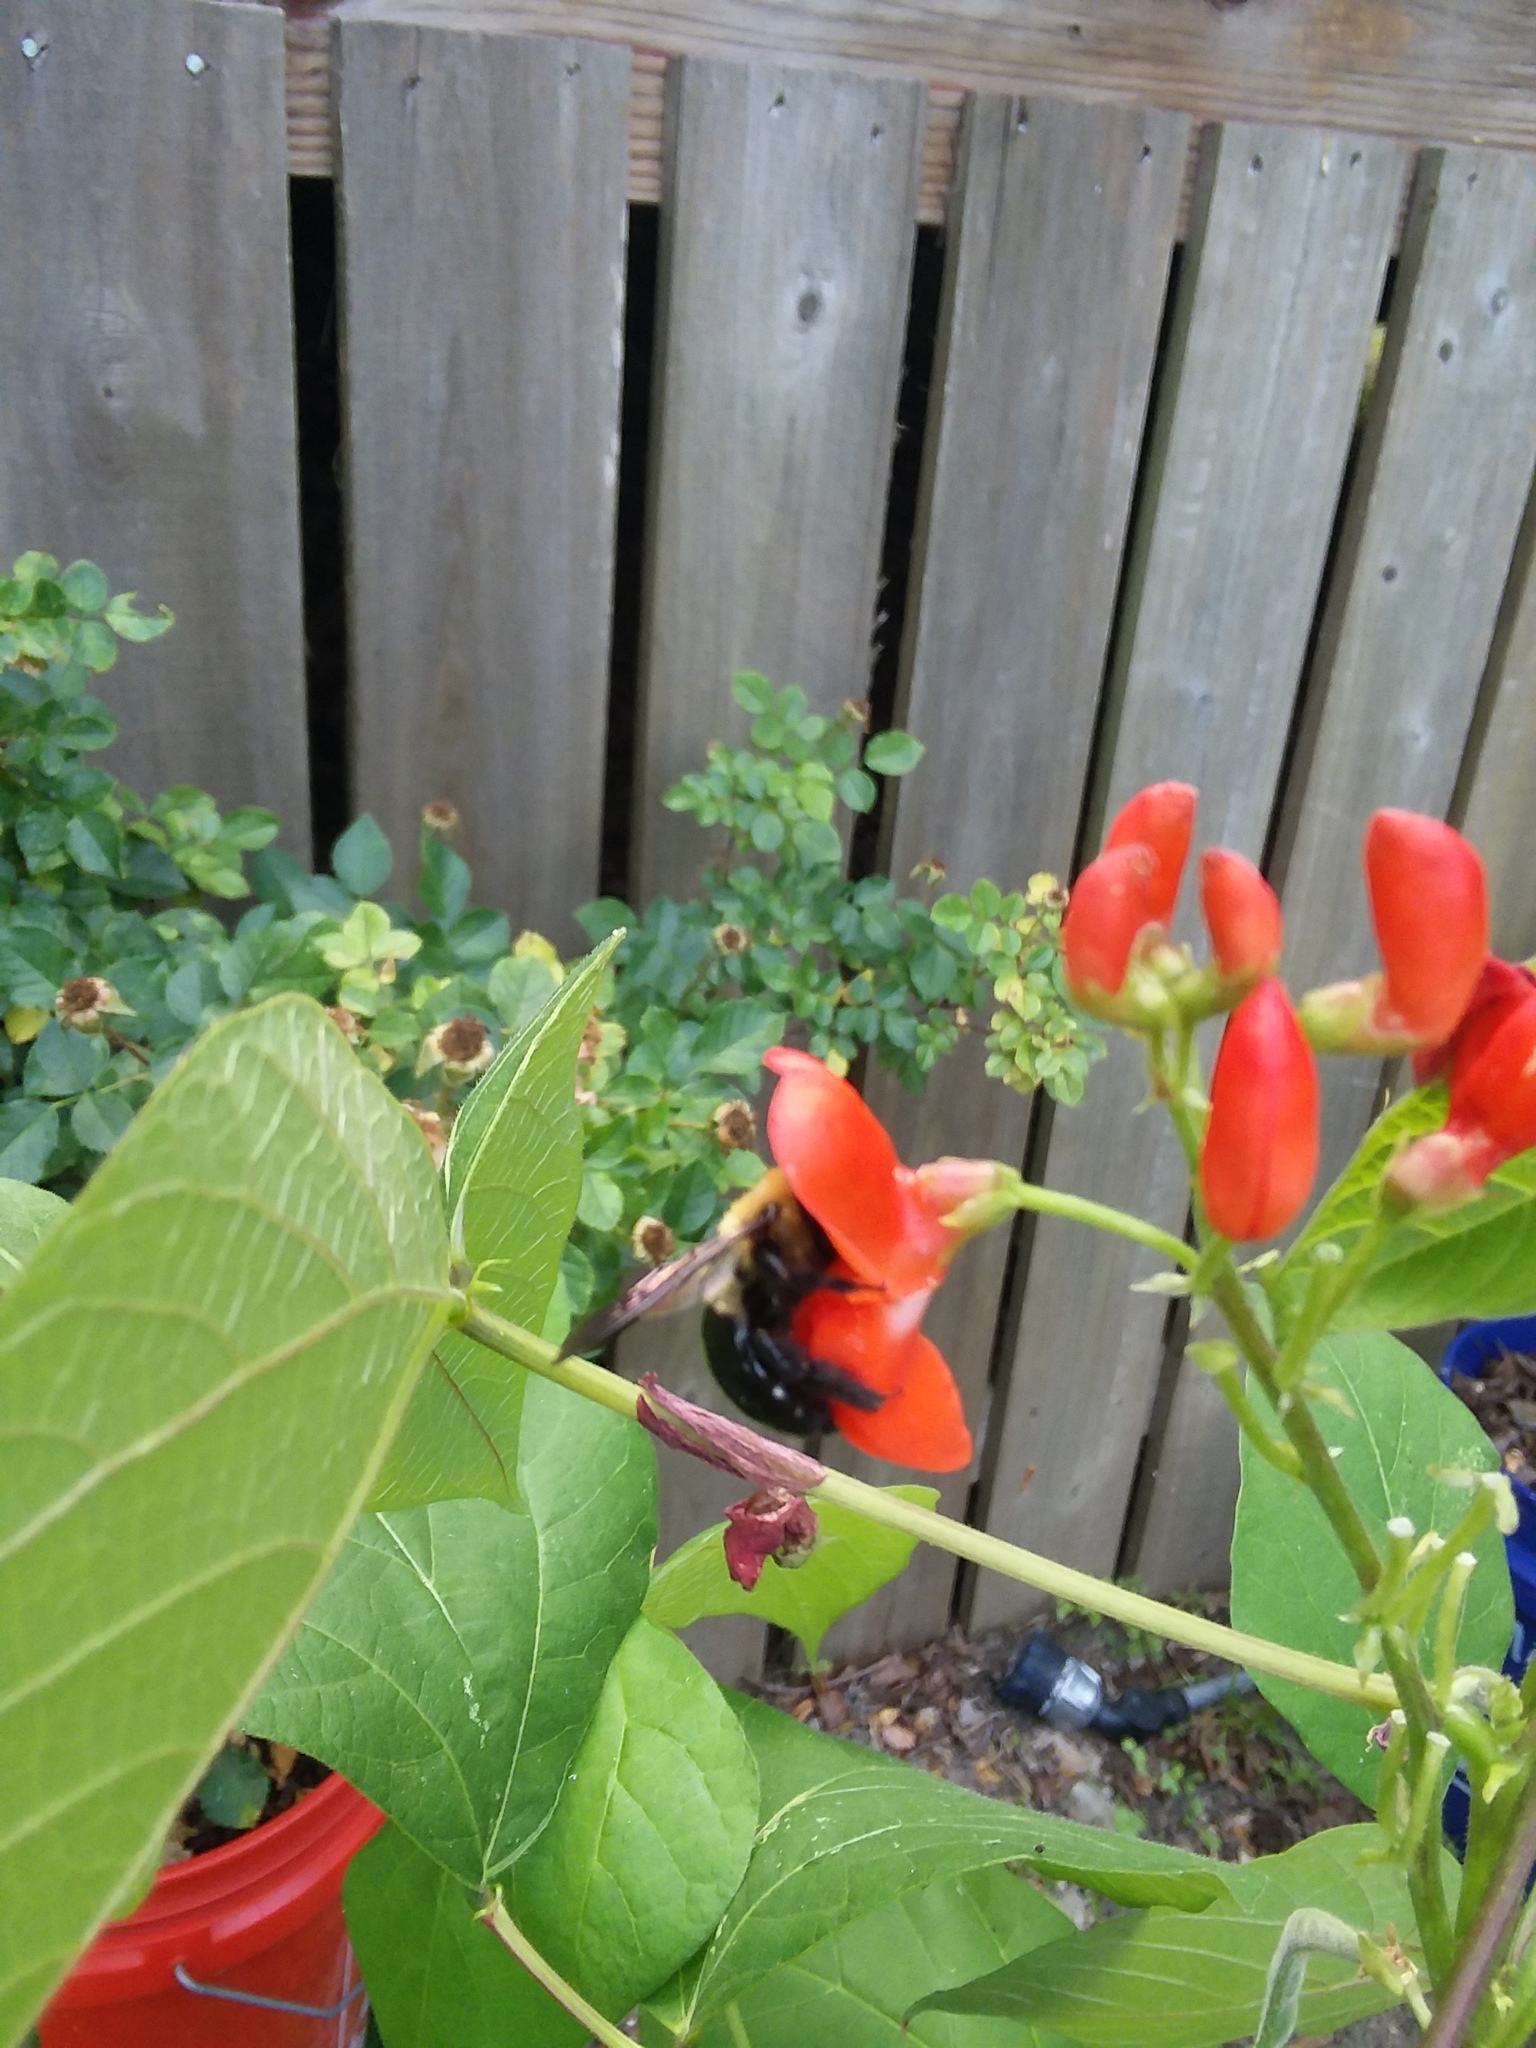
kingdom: Animalia
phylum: Arthropoda
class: Insecta
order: Hymenoptera
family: Apidae
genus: Xylocopa
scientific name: Xylocopa virginica
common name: Carpenter bee
